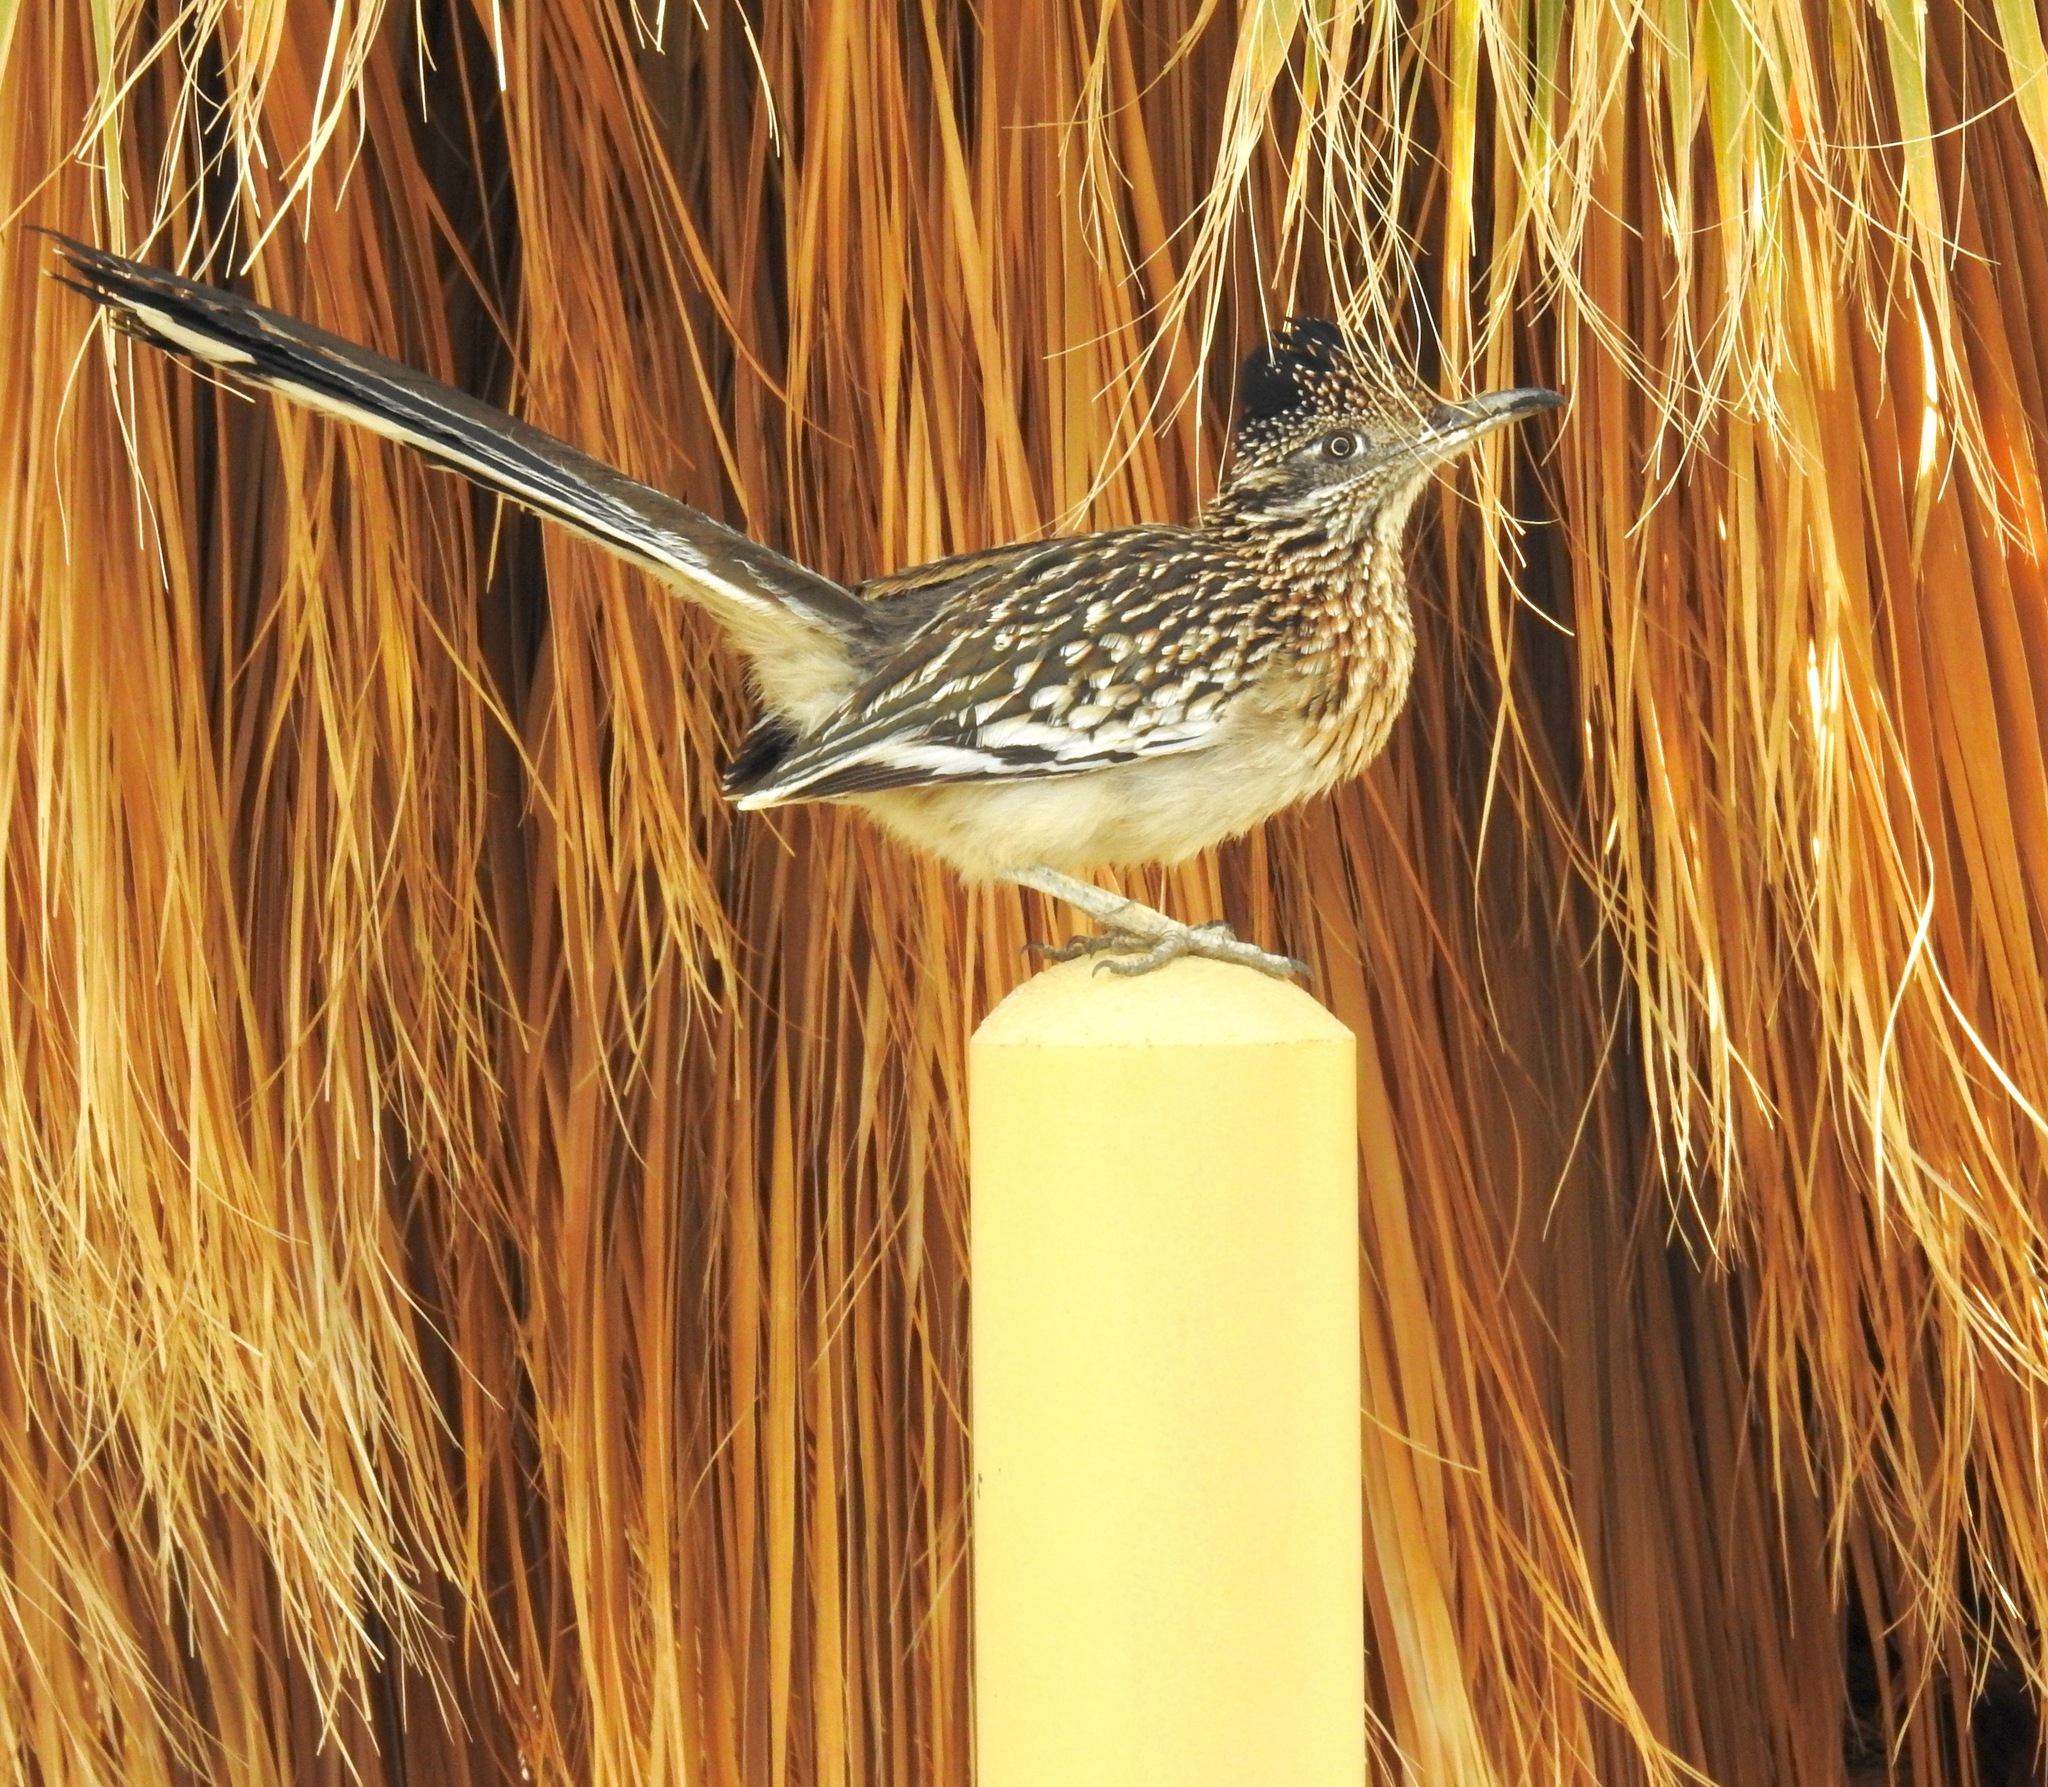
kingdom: Animalia
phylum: Chordata
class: Aves
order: Cuculiformes
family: Cuculidae
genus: Geococcyx
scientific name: Geococcyx californianus
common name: Greater roadrunner
